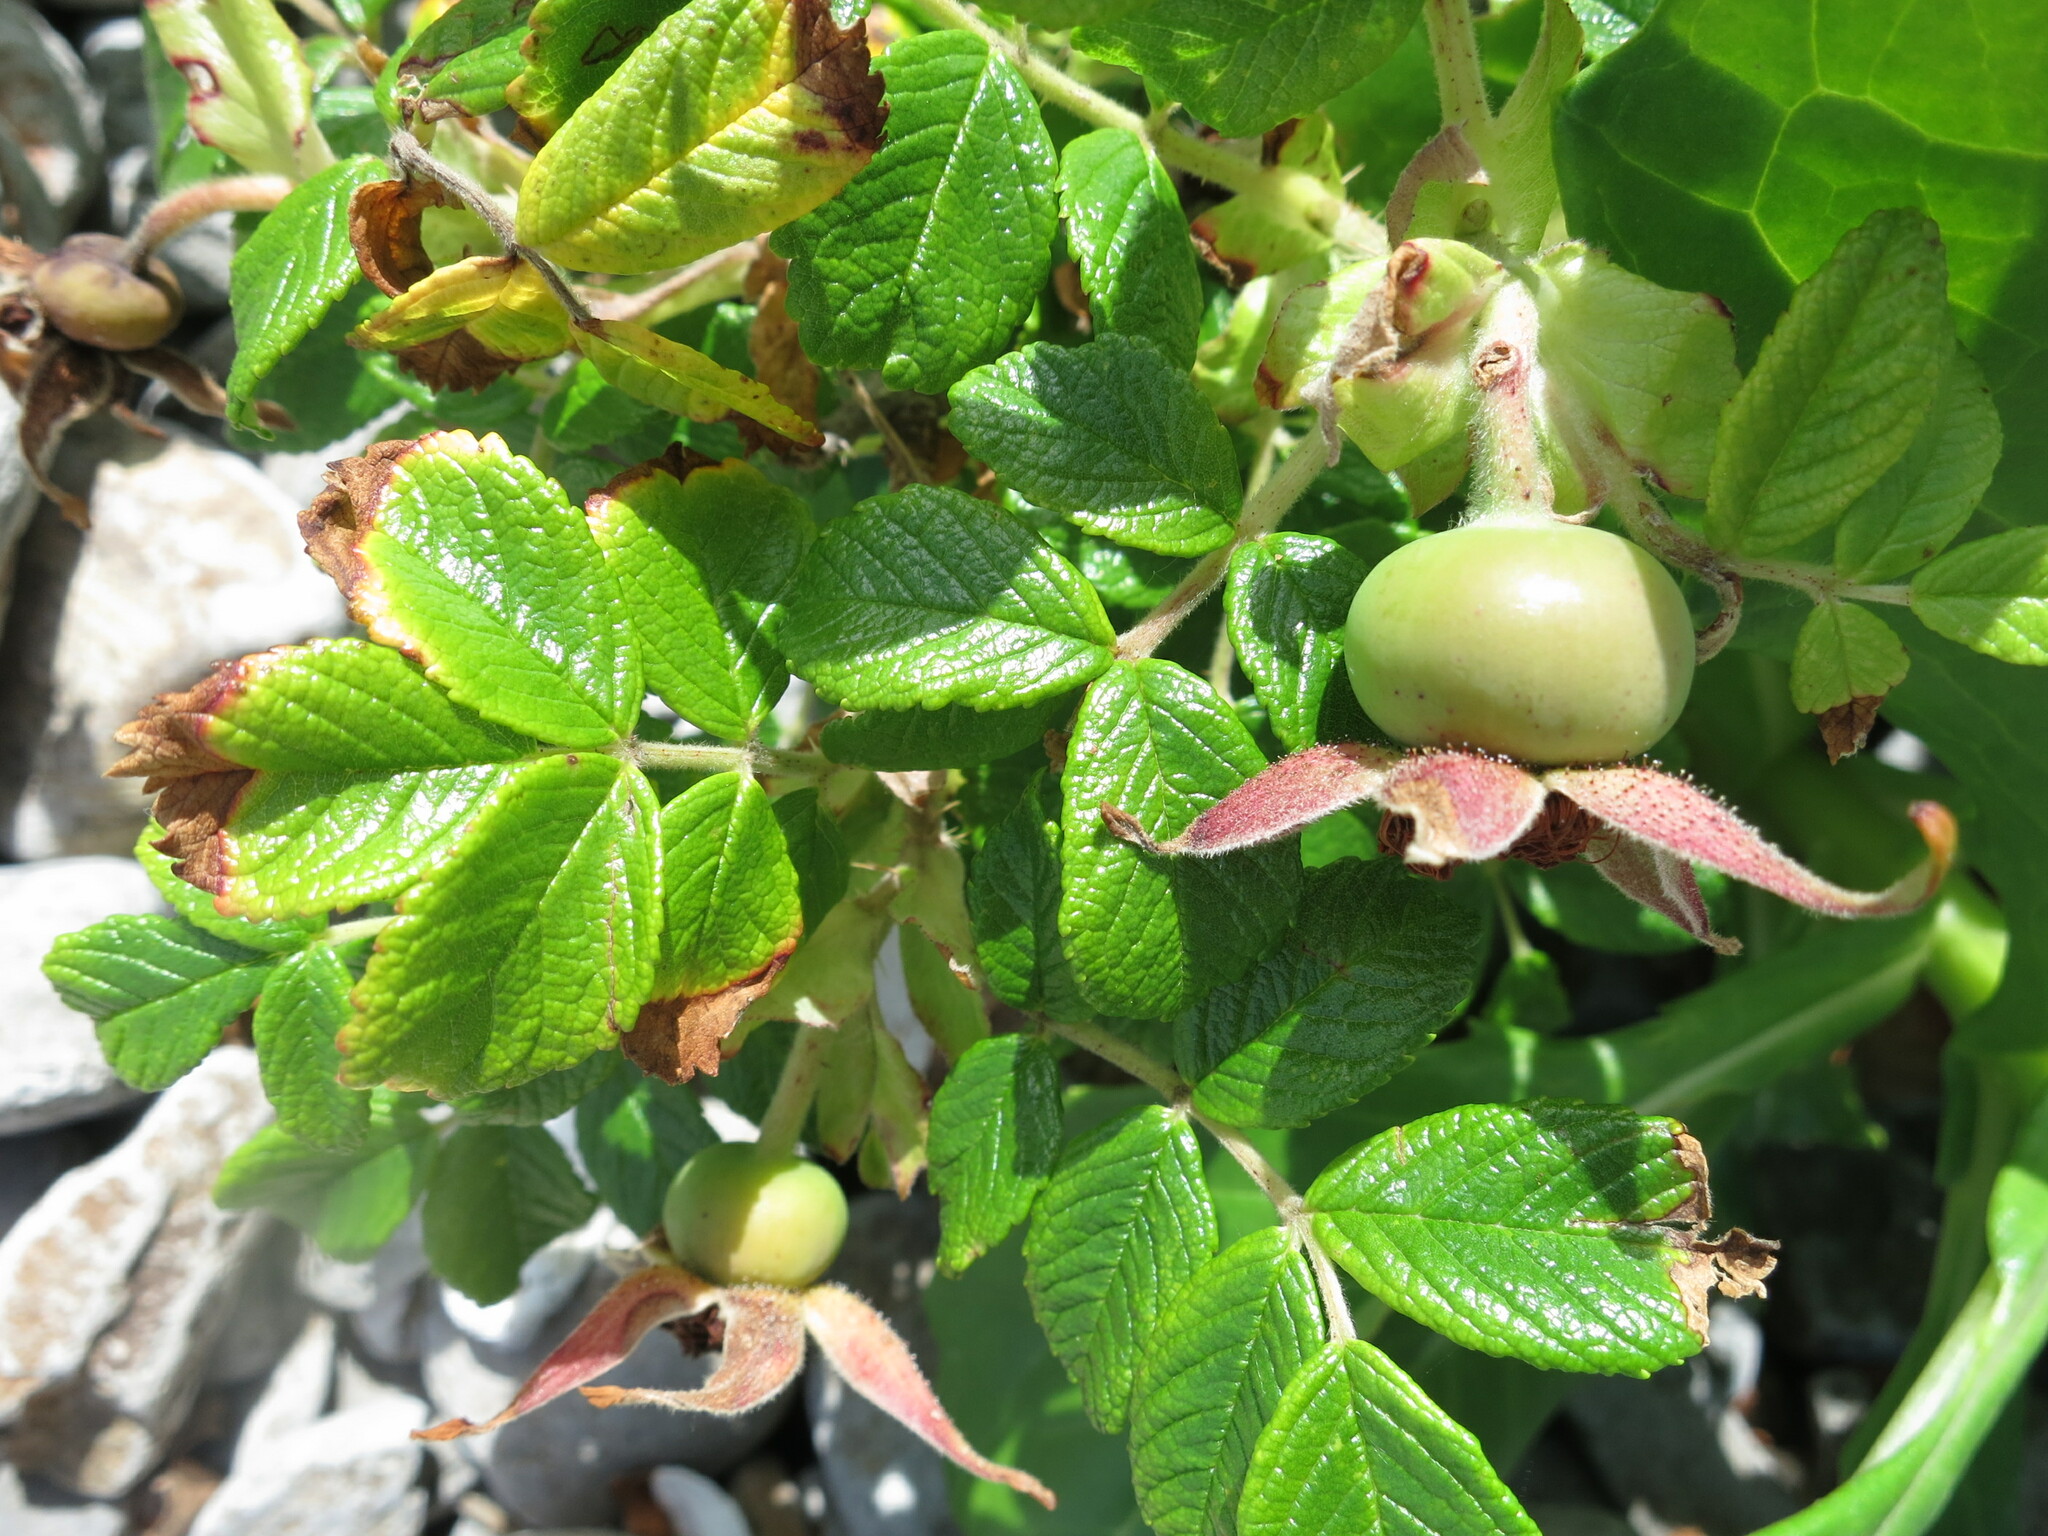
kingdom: Plantae
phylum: Tracheophyta
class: Magnoliopsida
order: Rosales
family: Rosaceae
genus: Rosa
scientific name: Rosa rugosa
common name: Japanese rose
